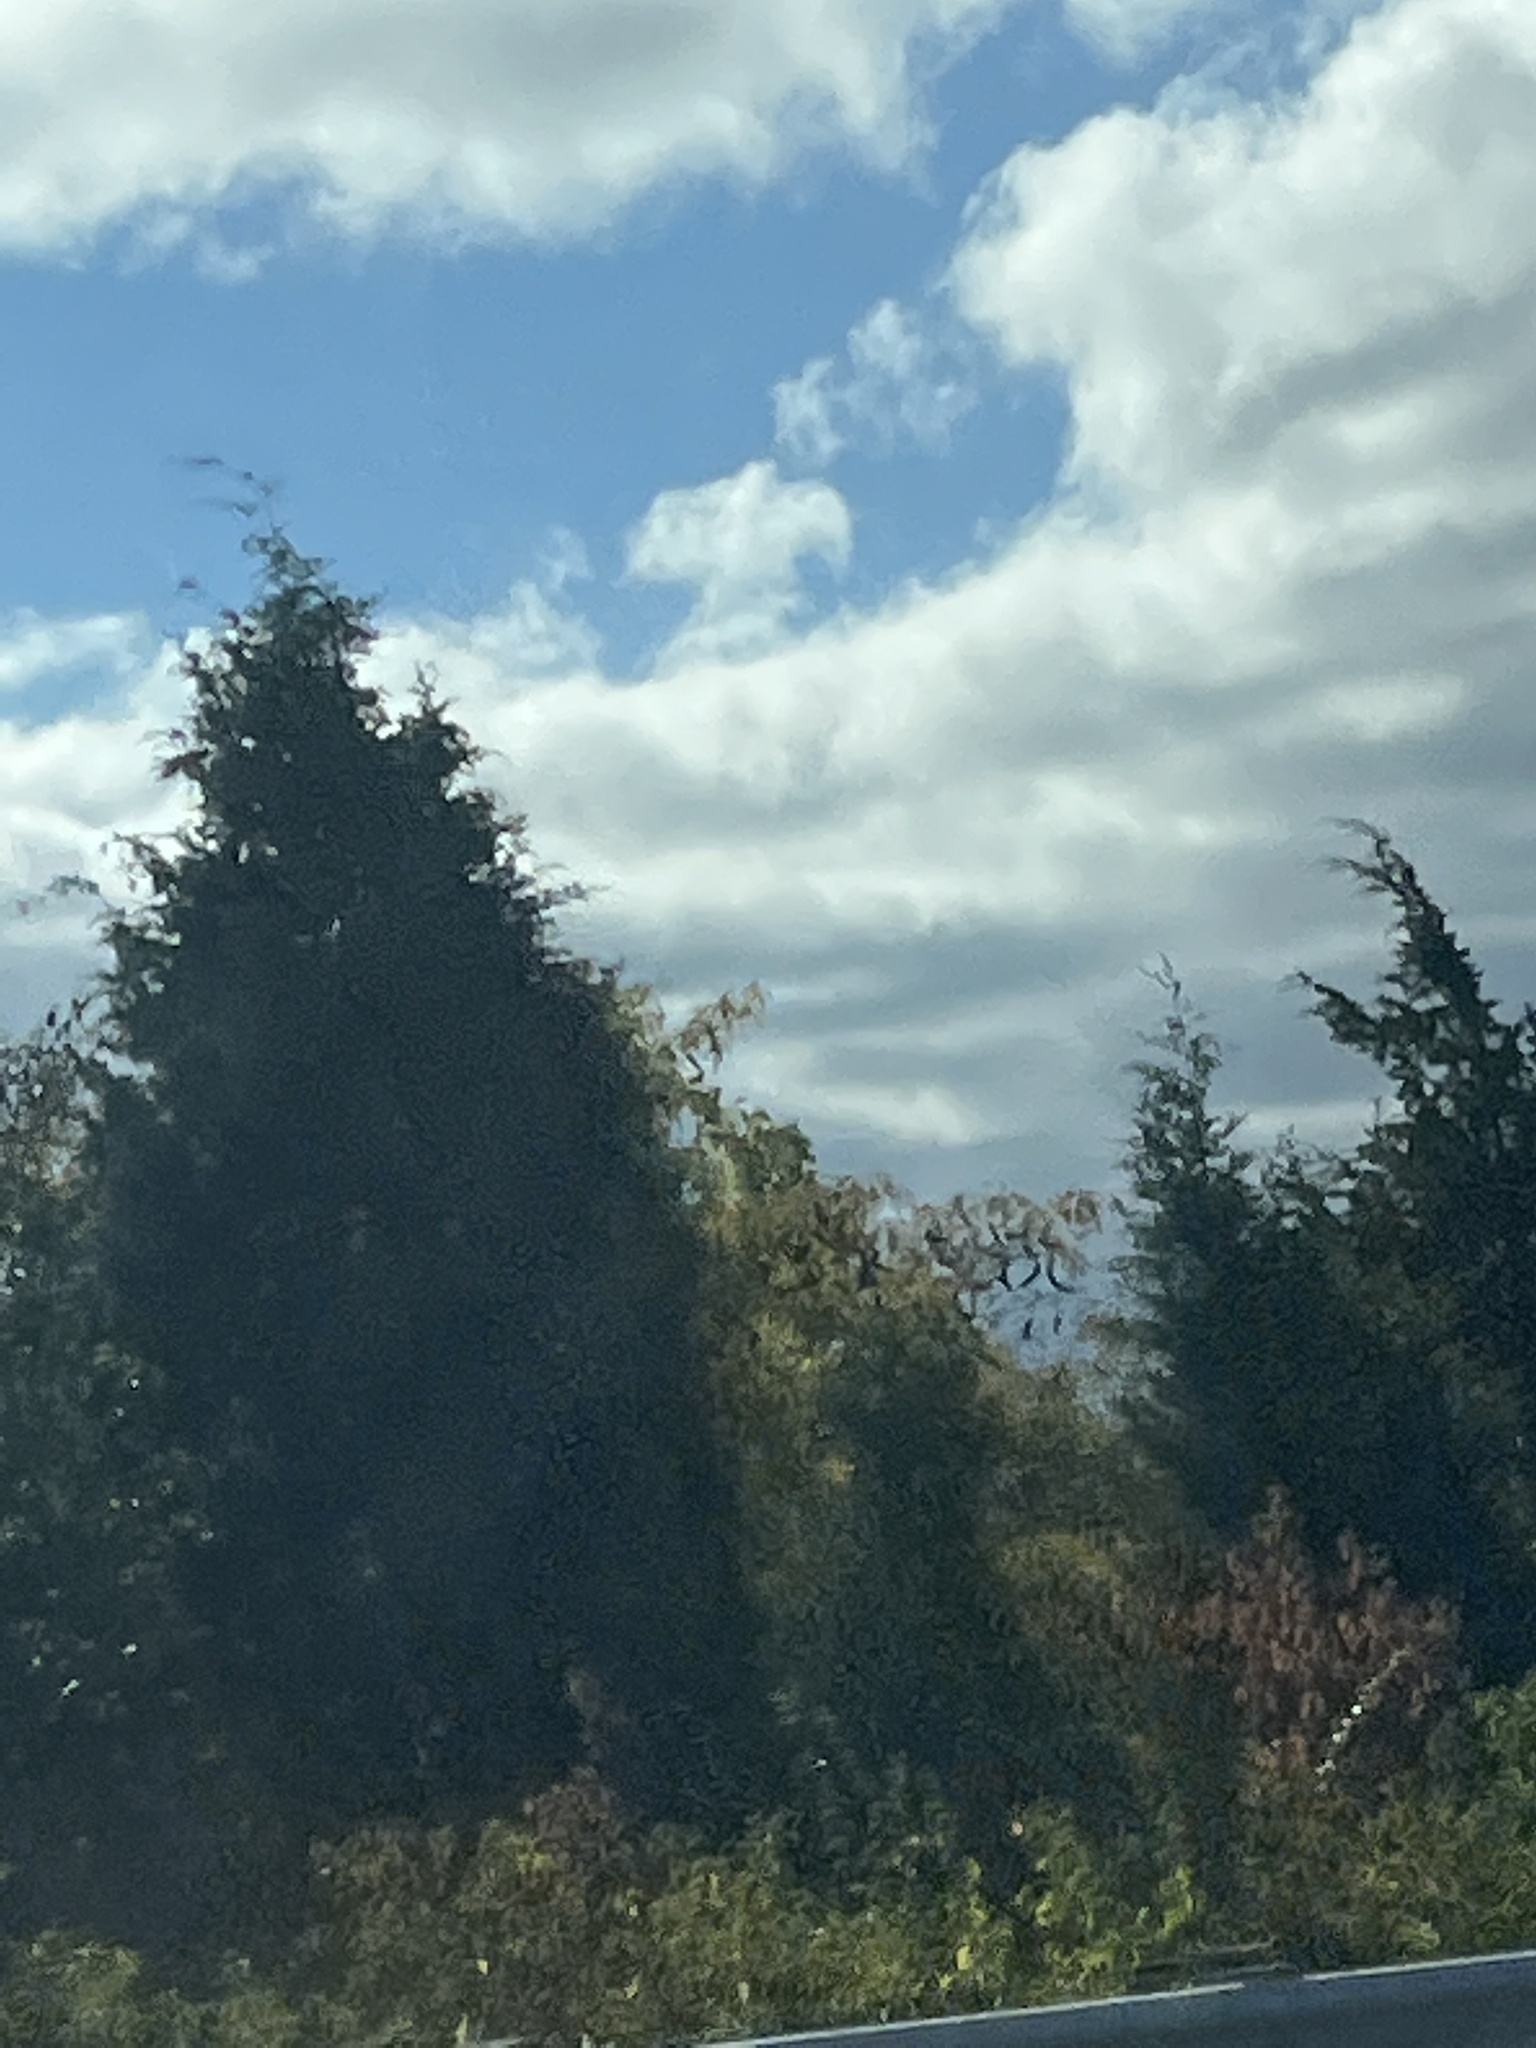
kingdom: Plantae
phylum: Tracheophyta
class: Pinopsida
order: Pinales
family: Cupressaceae
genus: Juniperus
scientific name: Juniperus virginiana
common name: Red juniper
